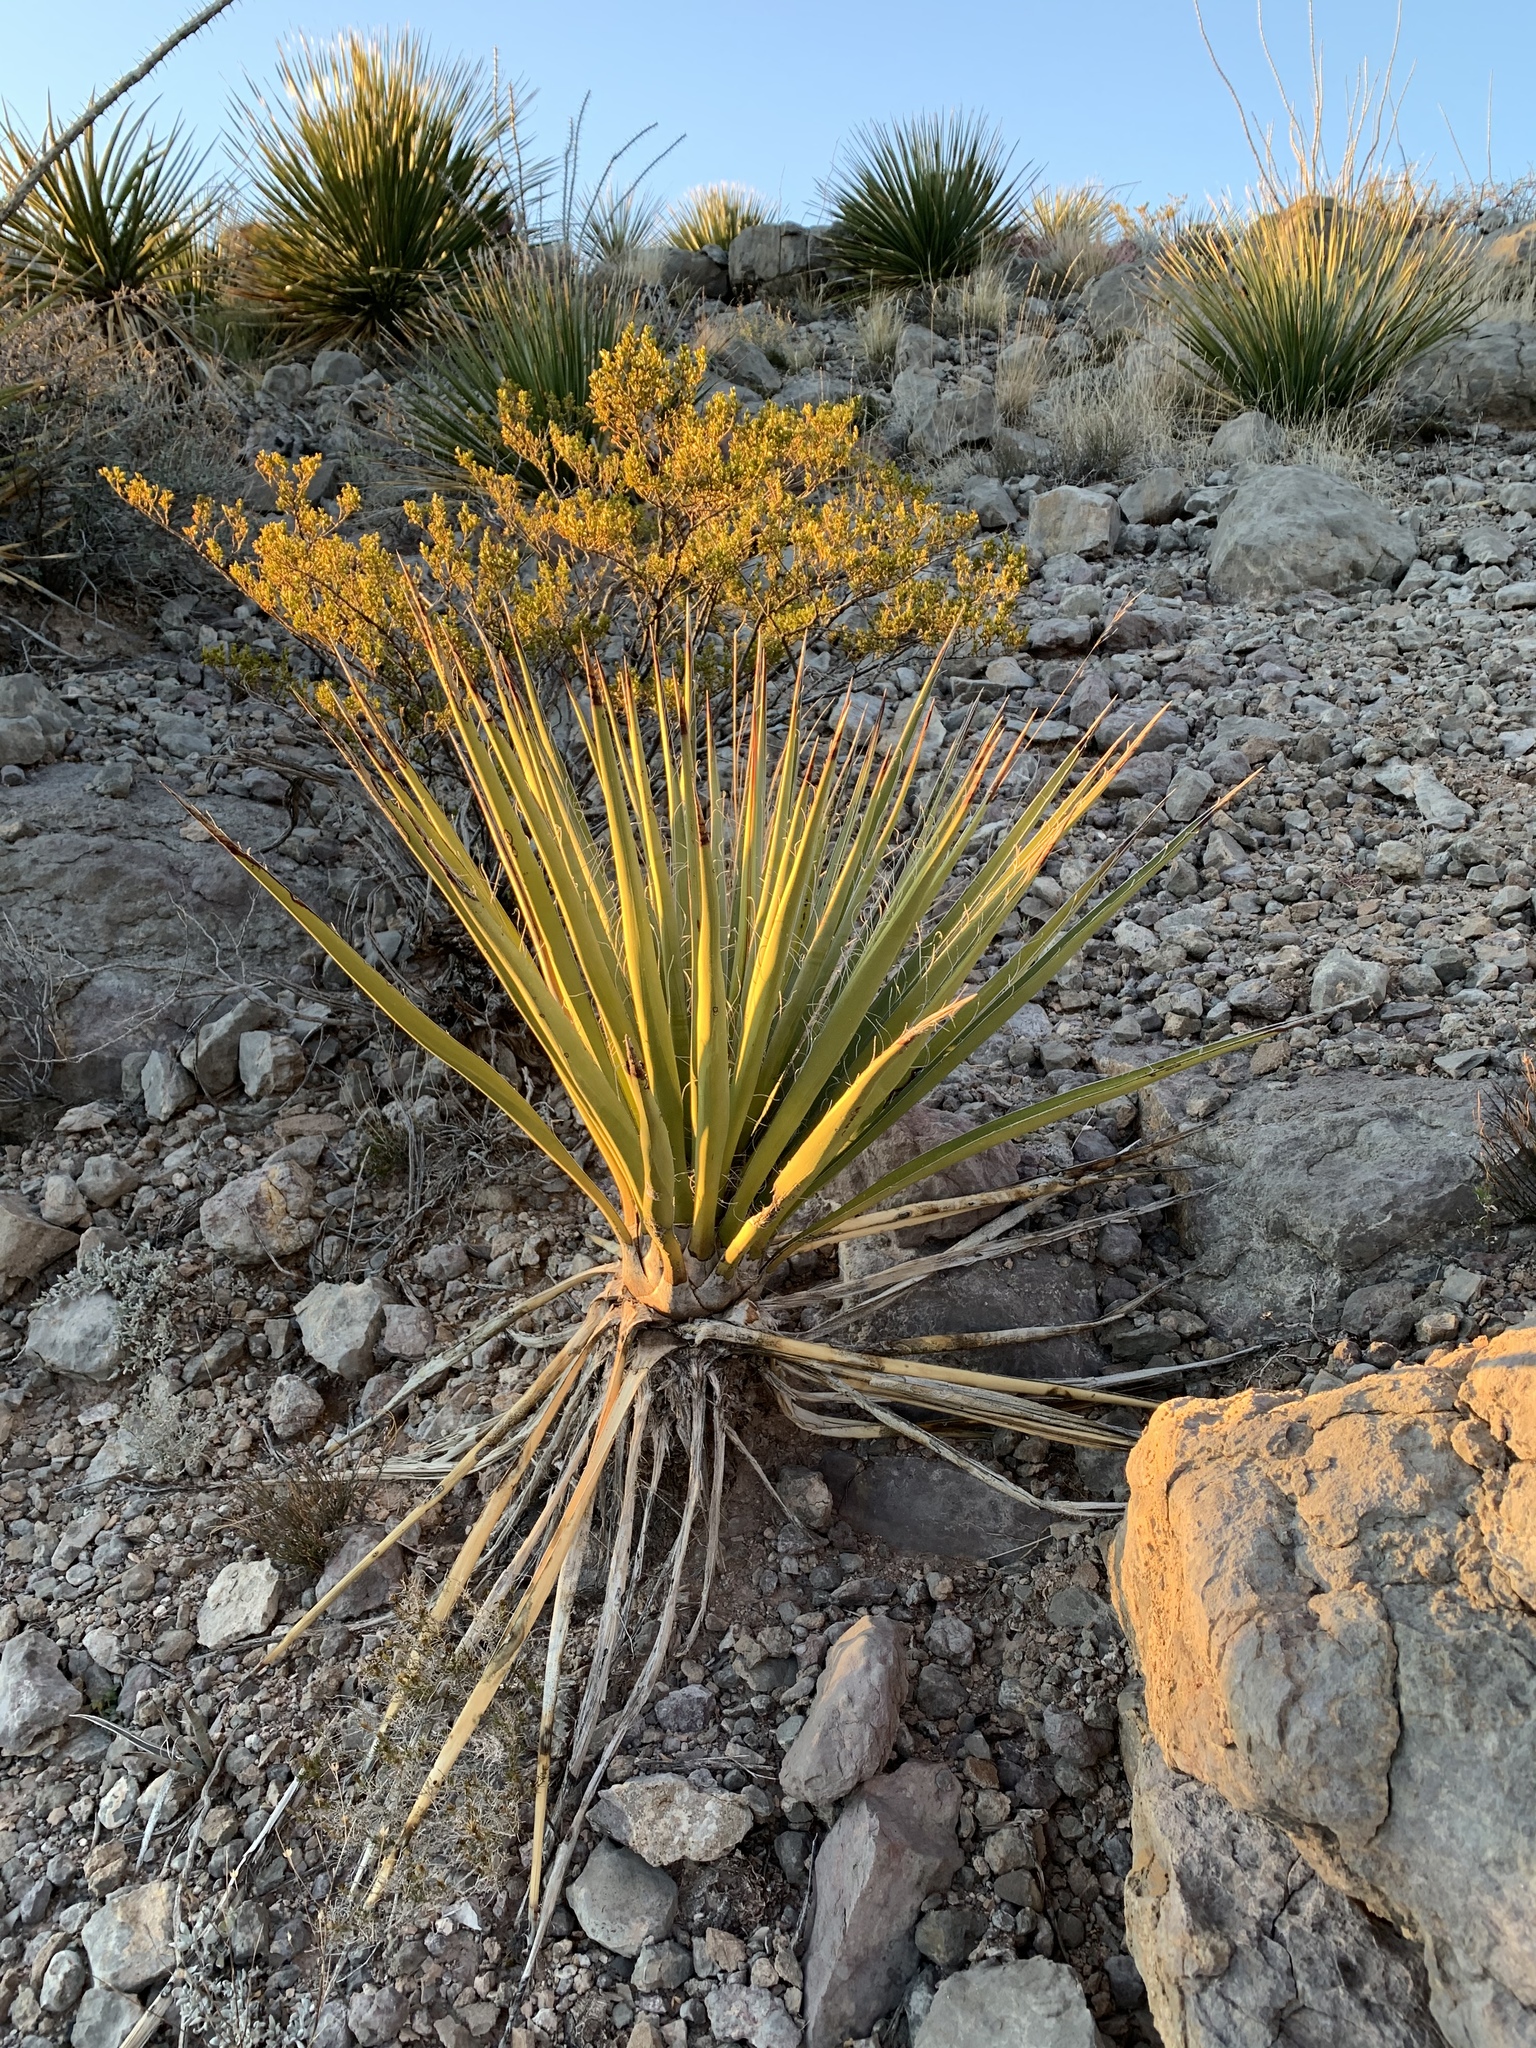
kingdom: Plantae
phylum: Tracheophyta
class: Liliopsida
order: Asparagales
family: Asparagaceae
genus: Yucca
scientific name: Yucca baccata
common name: Banana yucca
